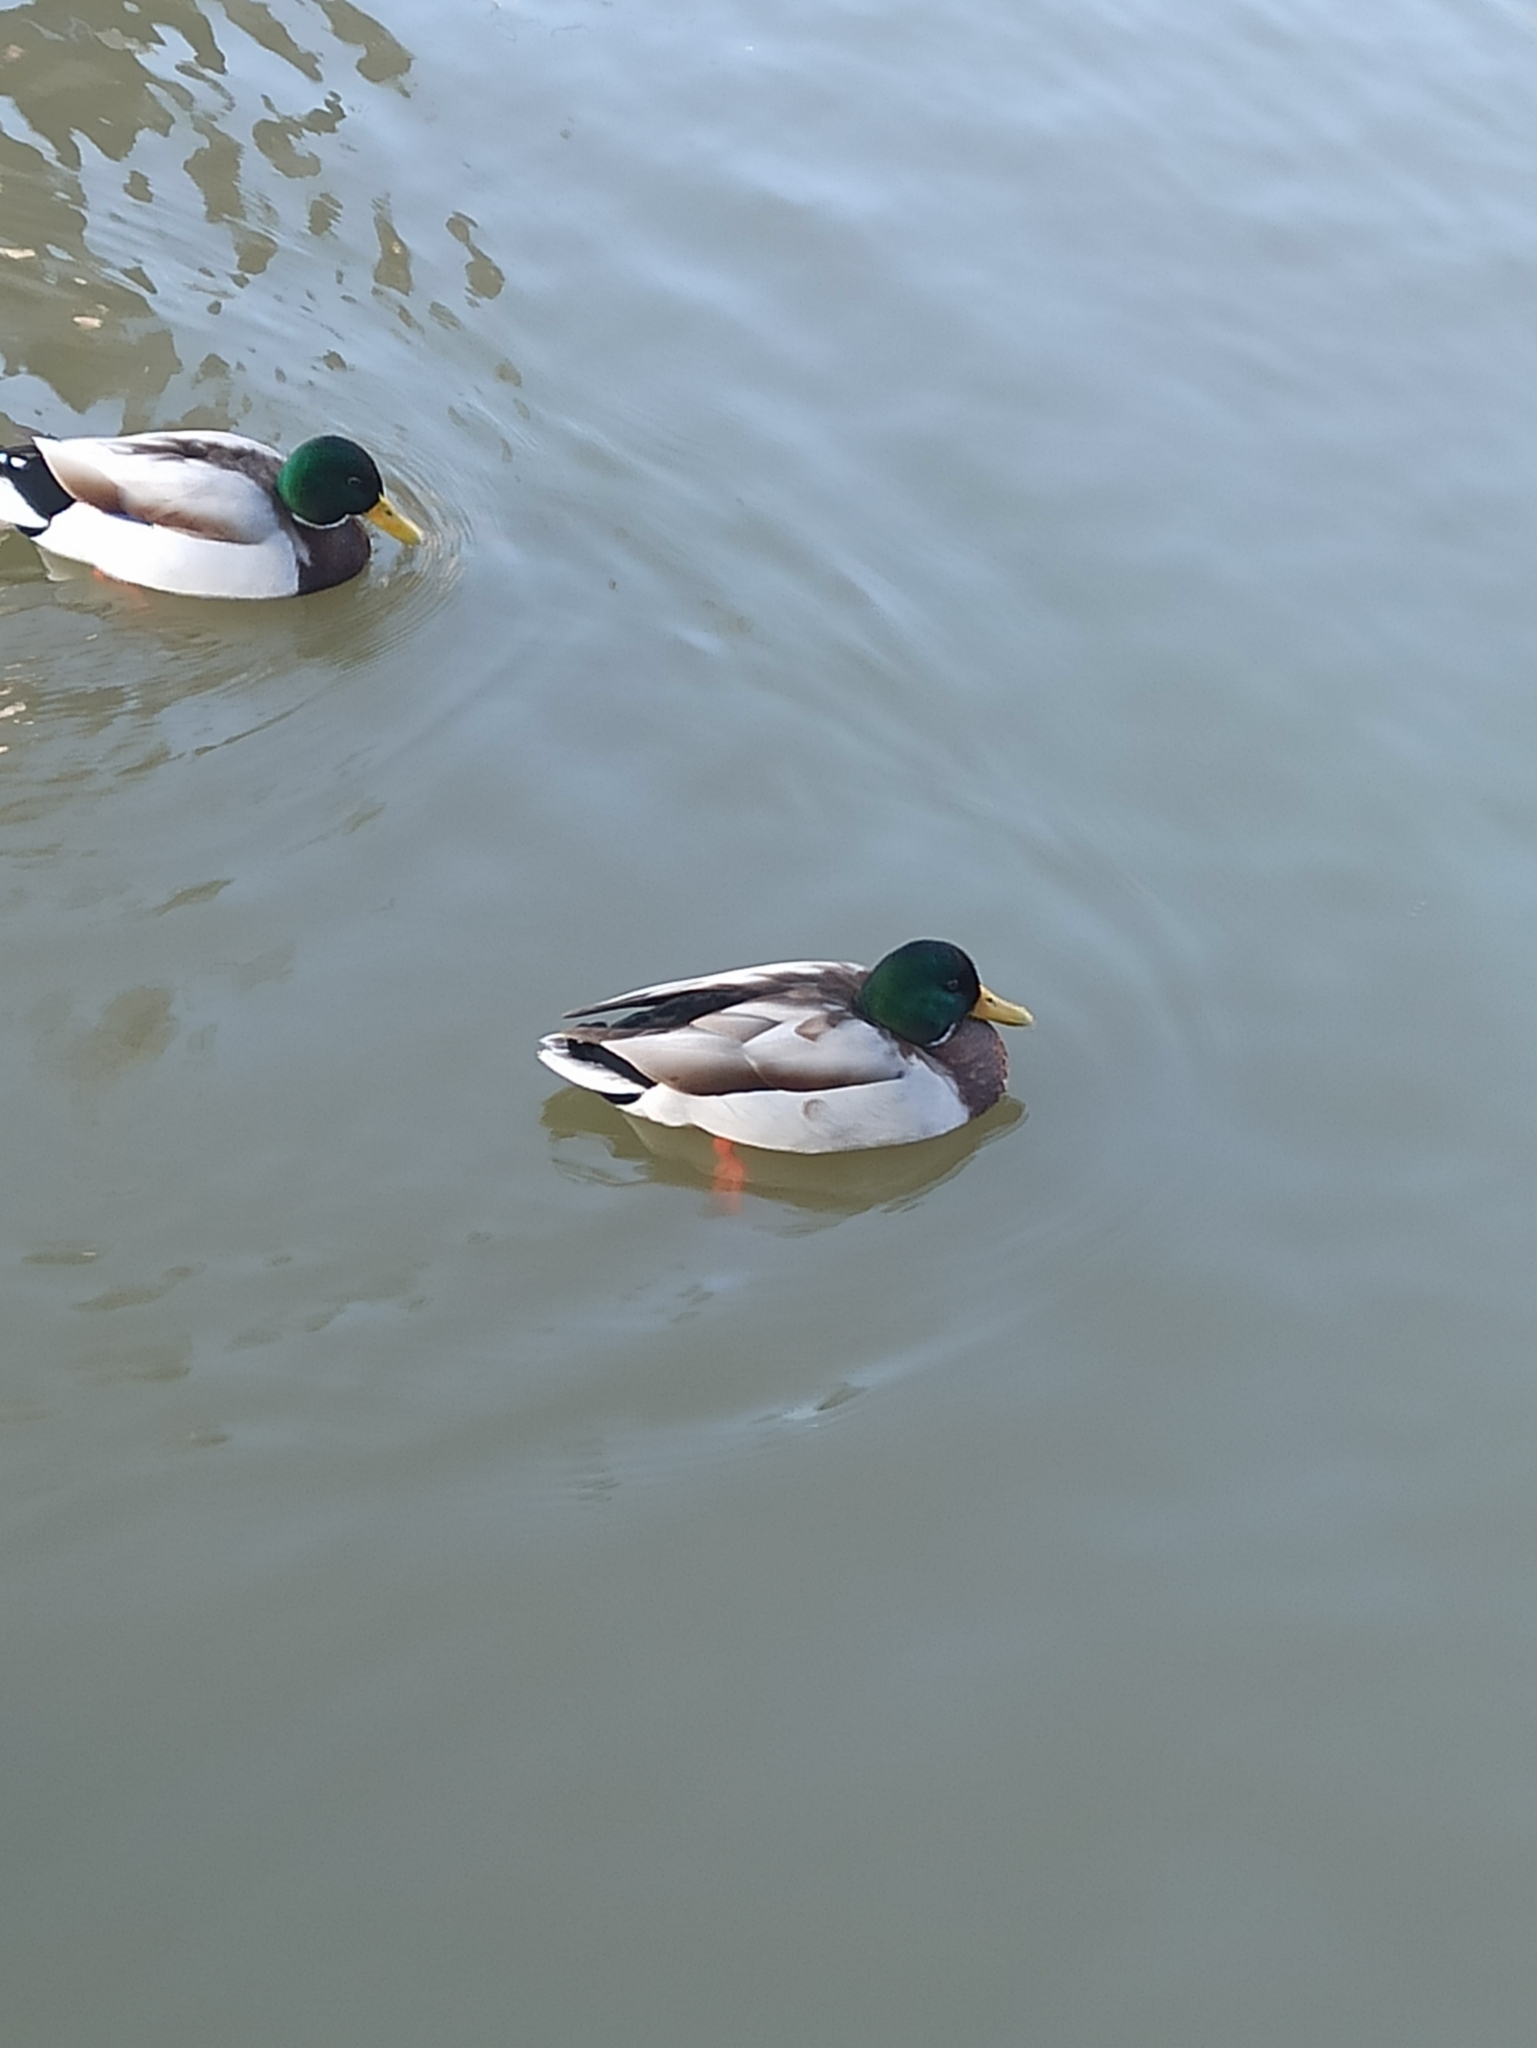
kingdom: Animalia
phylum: Chordata
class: Aves
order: Anseriformes
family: Anatidae
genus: Anas
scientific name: Anas platyrhynchos
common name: Mallard
